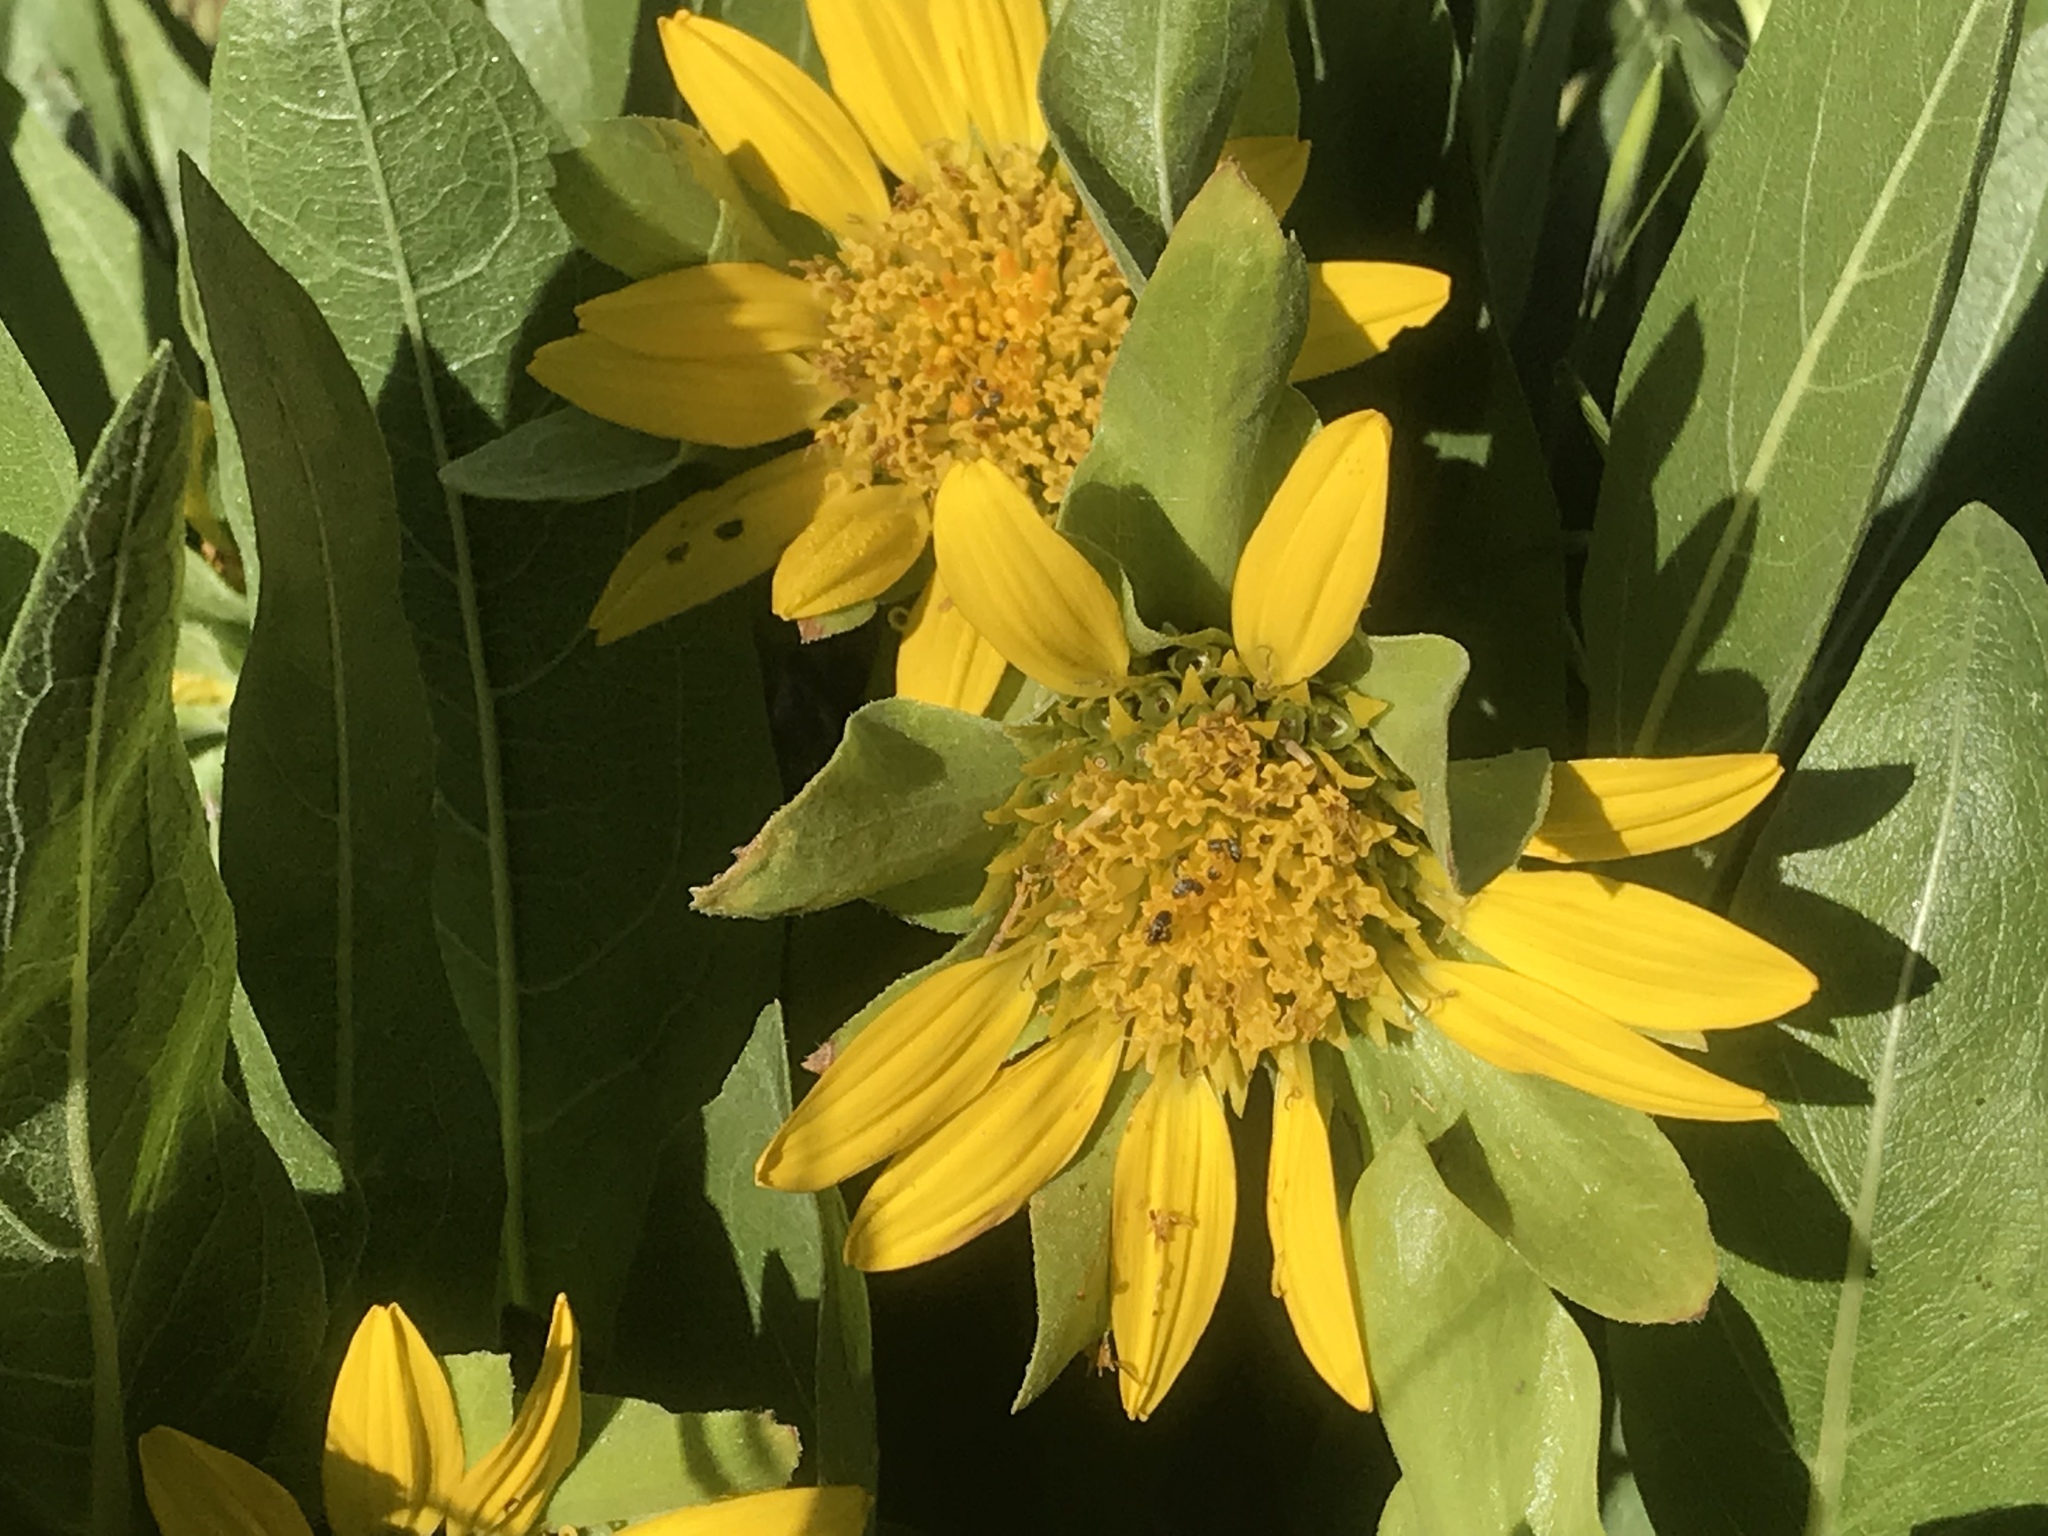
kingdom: Plantae
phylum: Tracheophyta
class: Magnoliopsida
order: Asterales
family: Asteraceae
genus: Wyethia
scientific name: Wyethia glabra
